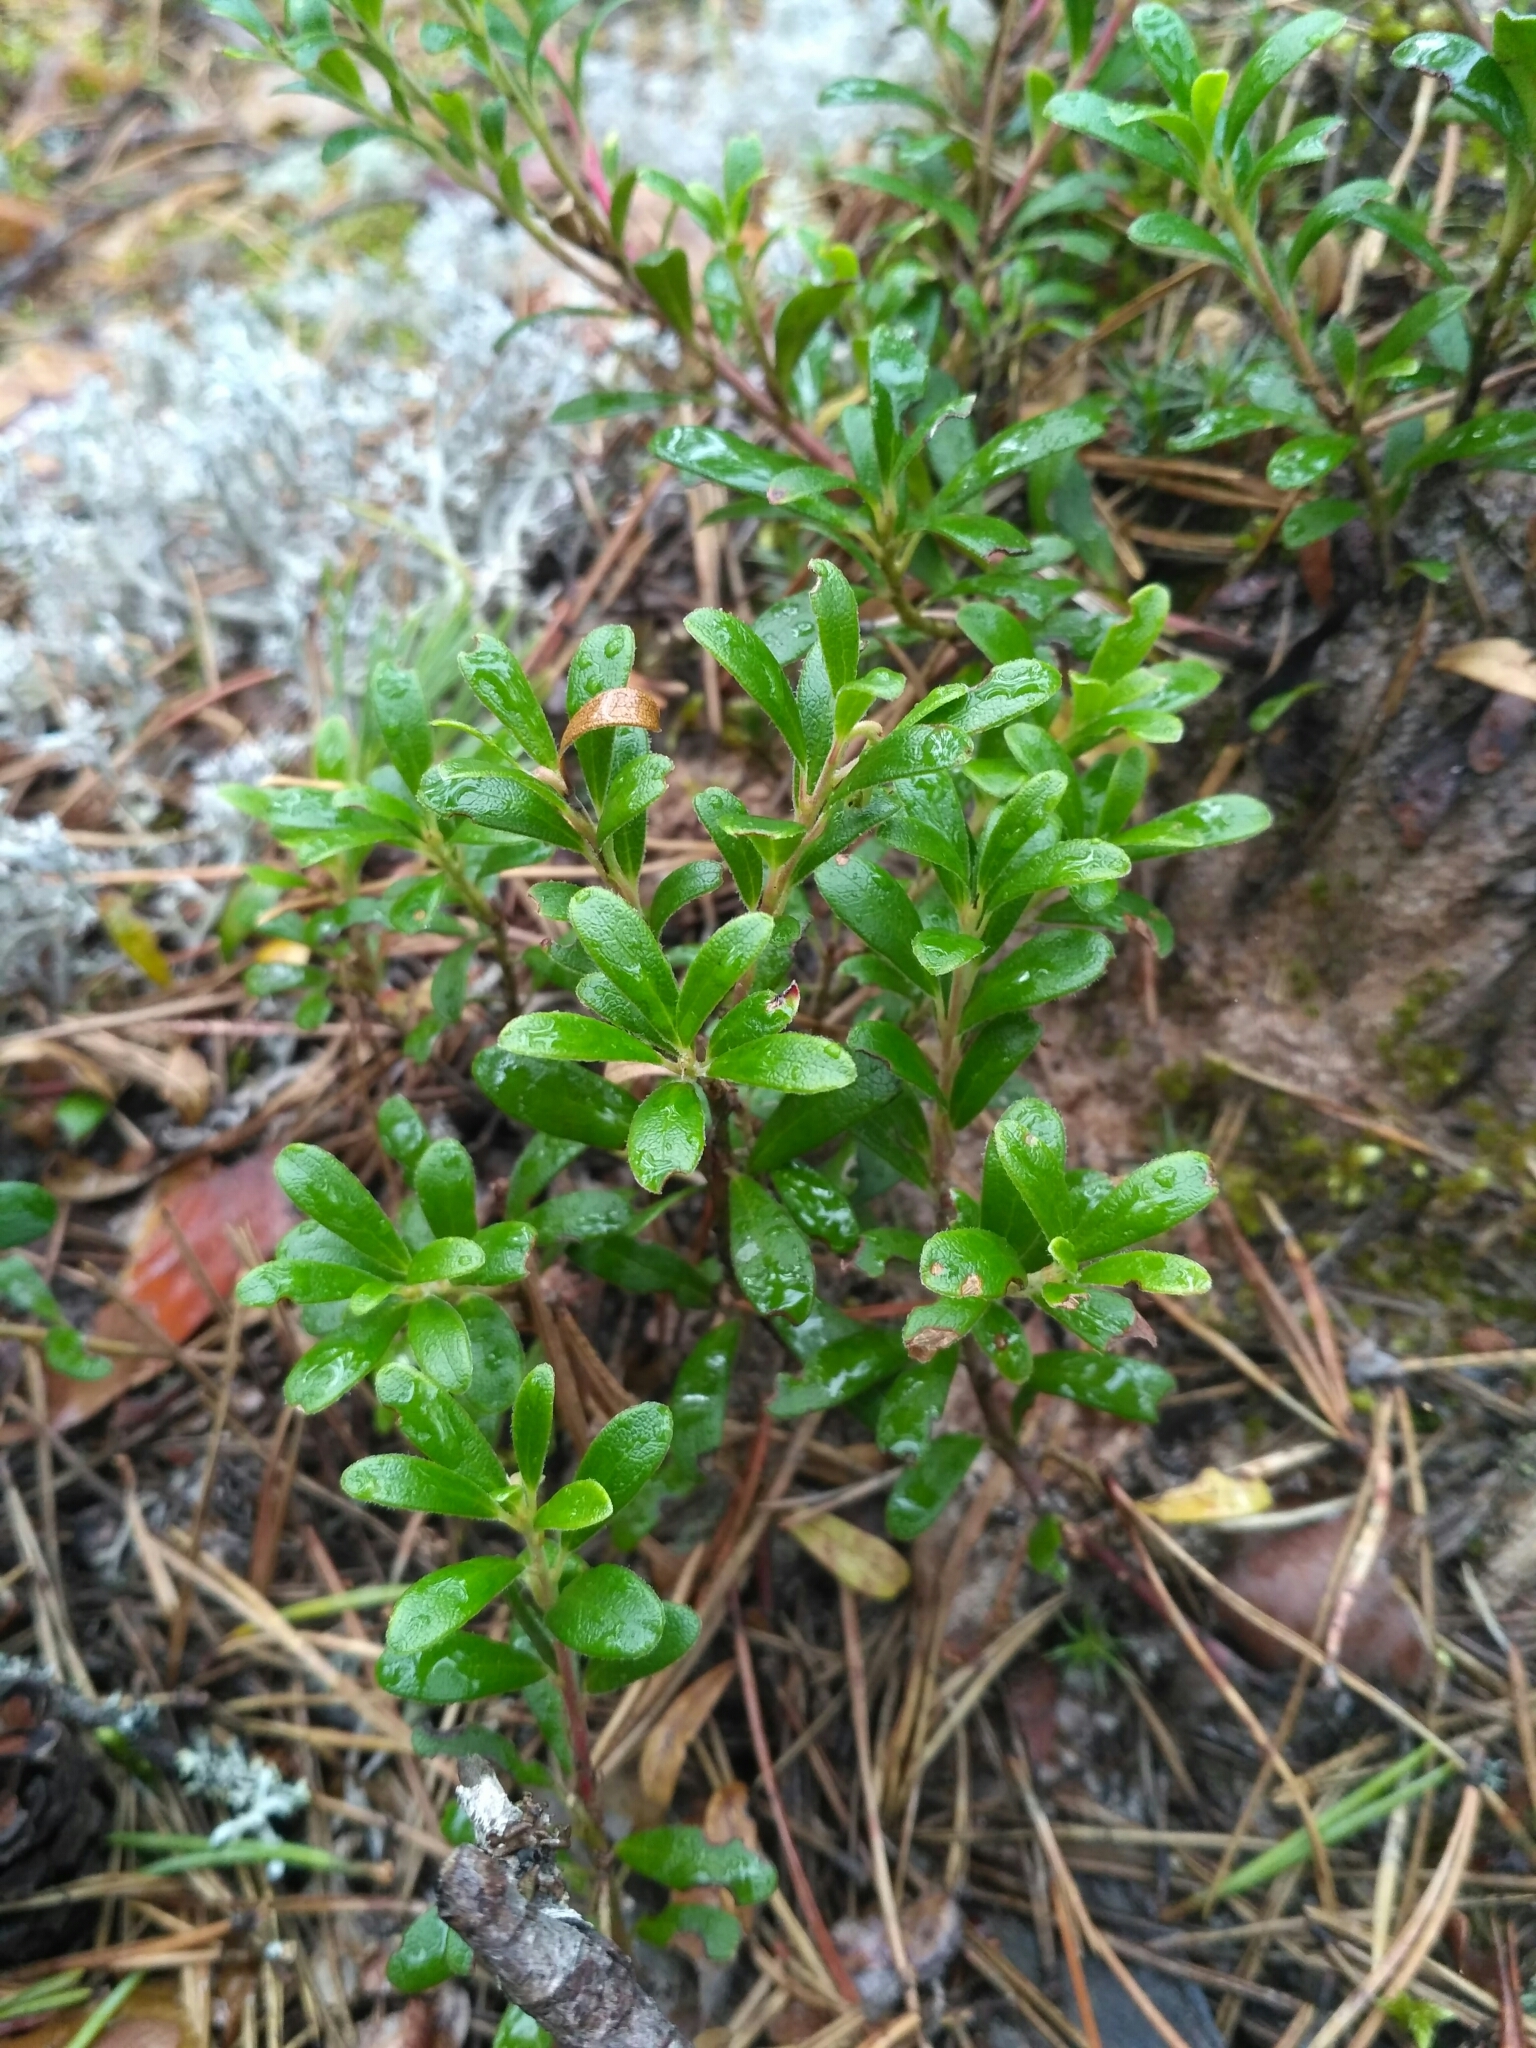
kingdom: Plantae
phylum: Tracheophyta
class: Magnoliopsida
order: Ericales
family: Ericaceae
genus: Arctostaphylos
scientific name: Arctostaphylos uva-ursi
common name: Bearberry
